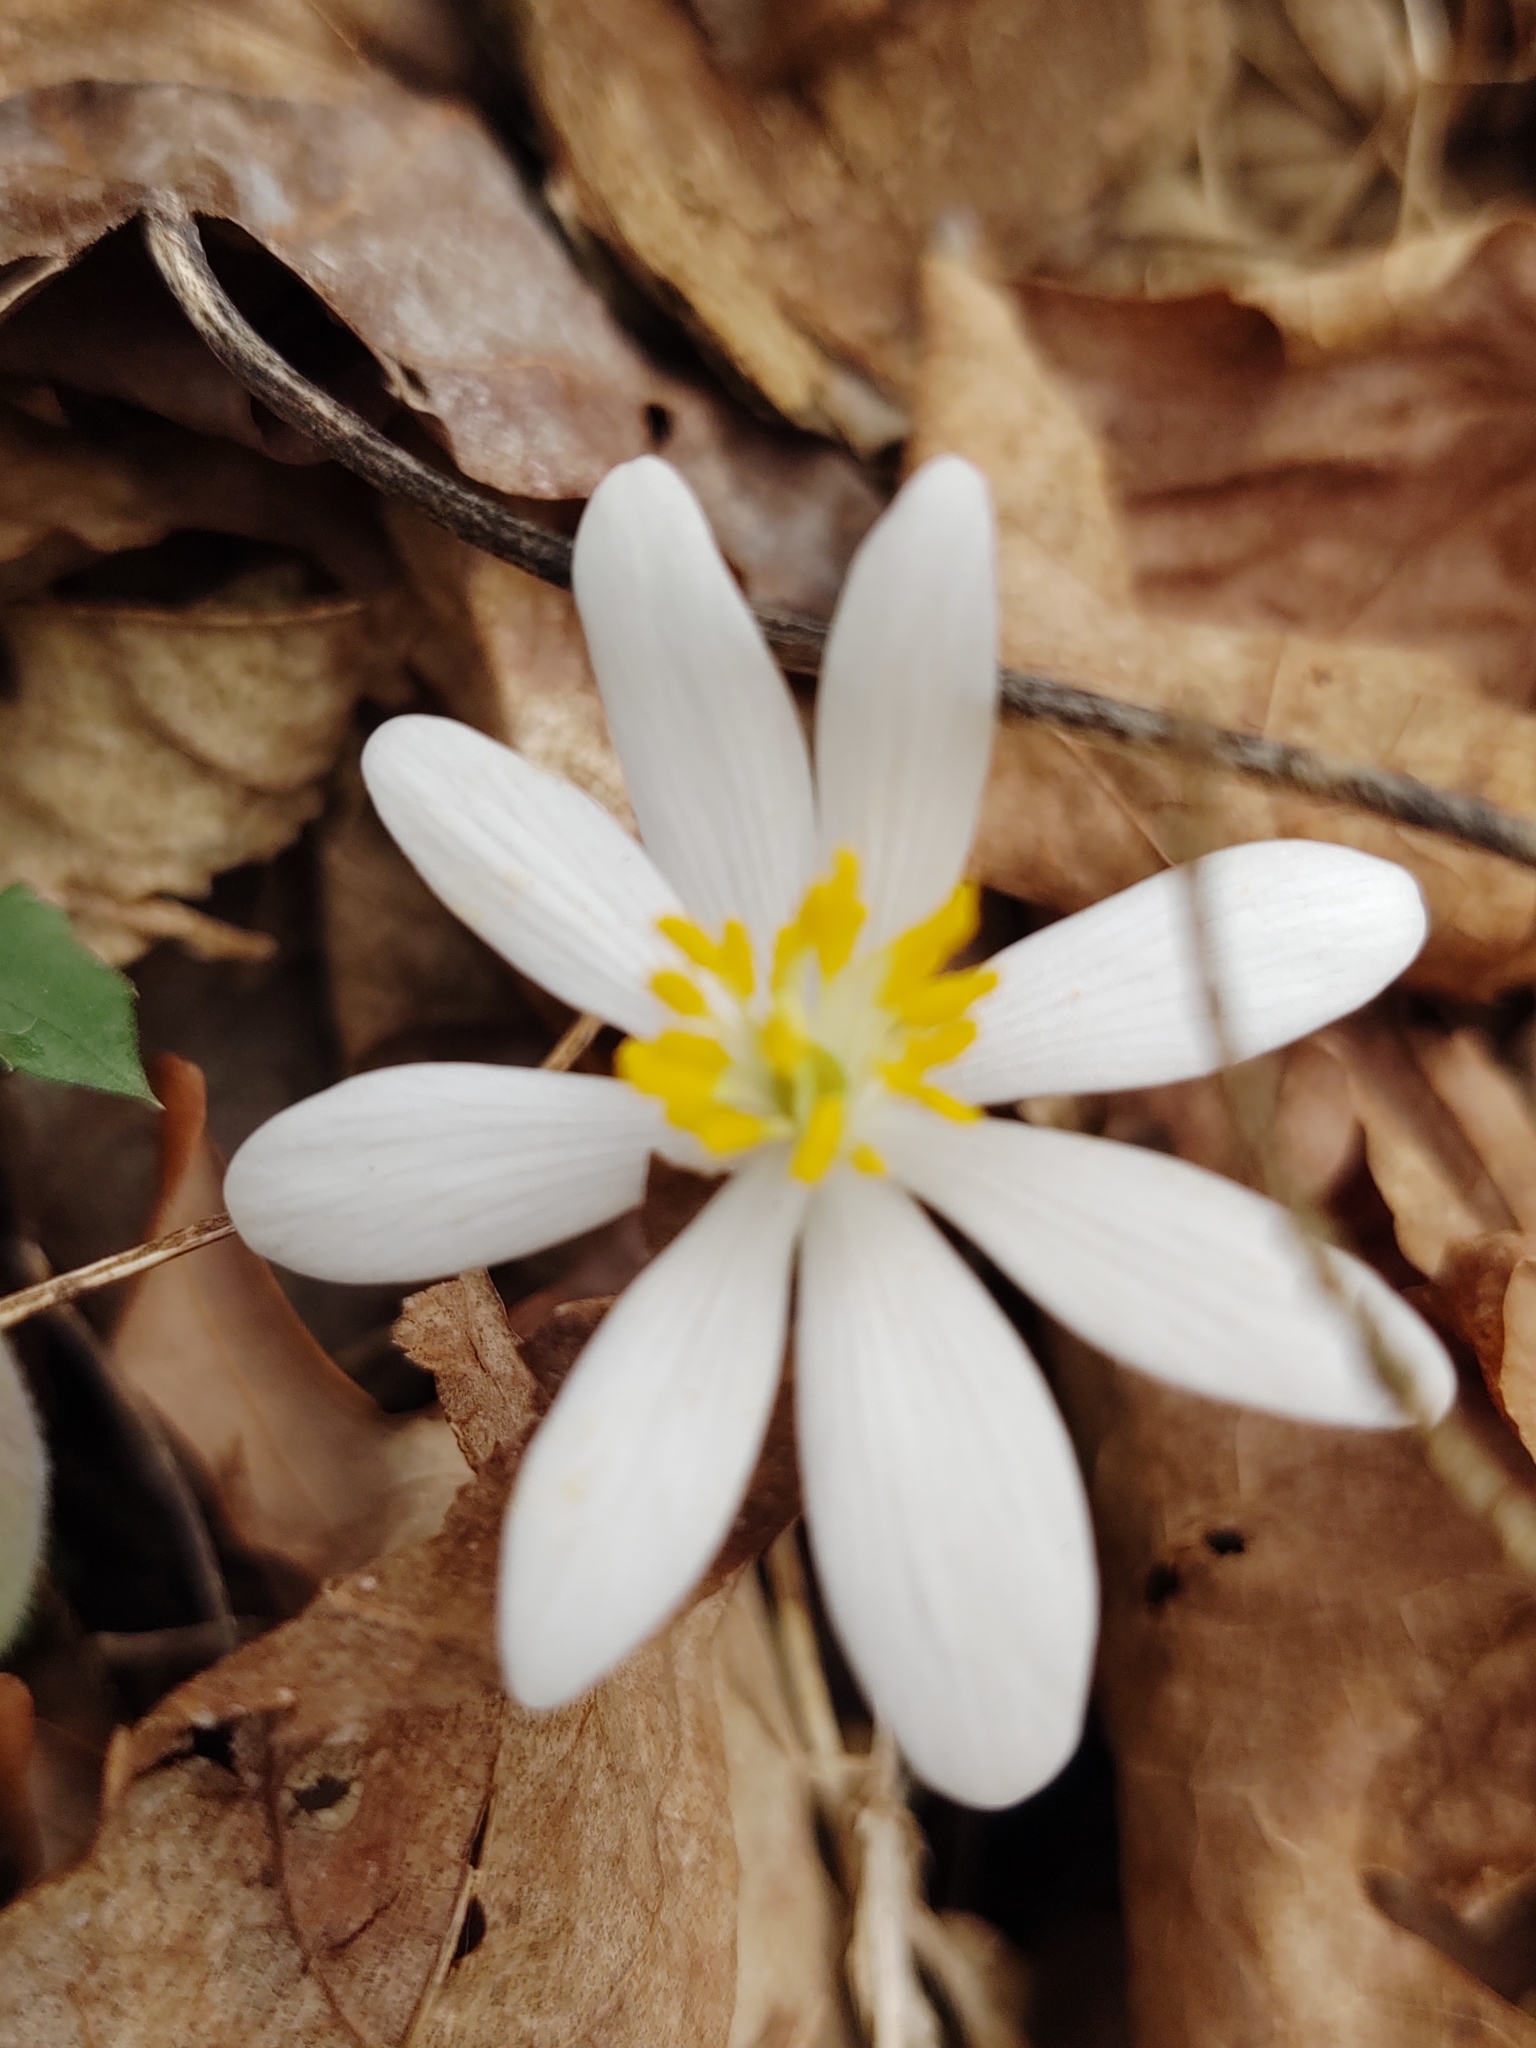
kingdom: Plantae
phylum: Tracheophyta
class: Magnoliopsida
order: Ranunculales
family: Papaveraceae
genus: Sanguinaria
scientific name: Sanguinaria canadensis
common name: Bloodroot
